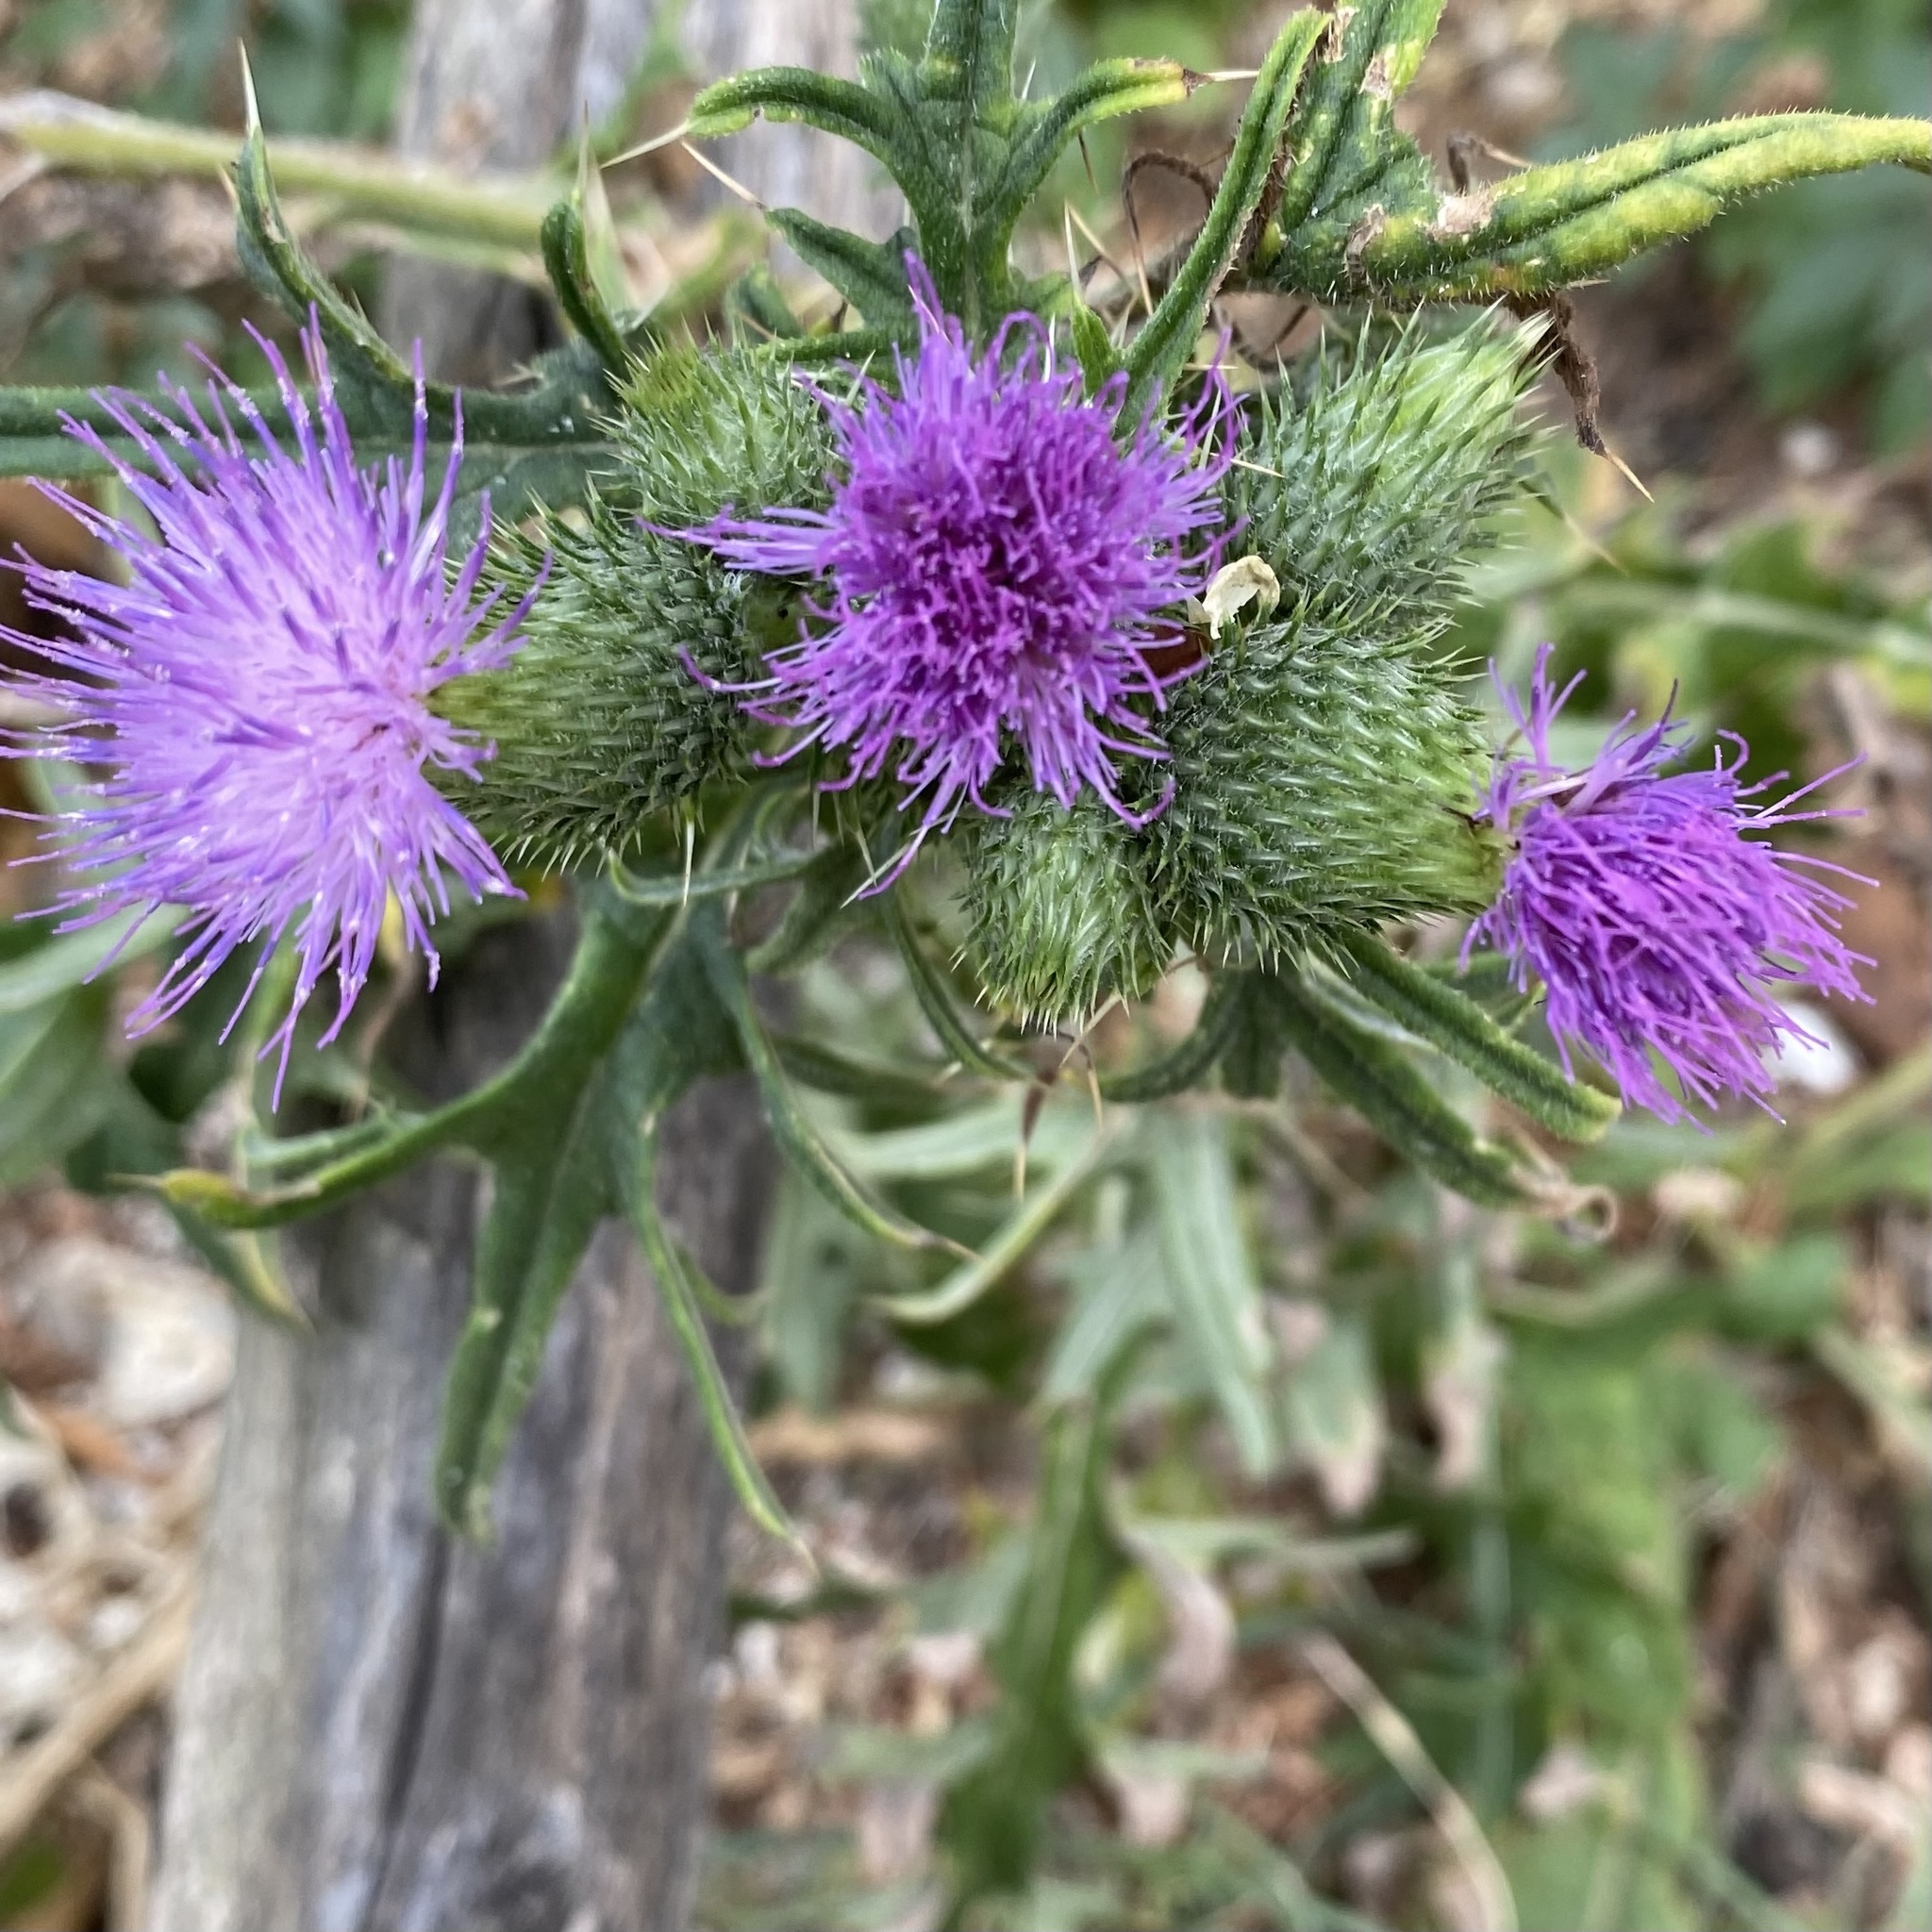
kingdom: Plantae
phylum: Tracheophyta
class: Magnoliopsida
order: Asterales
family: Asteraceae
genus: Cirsium
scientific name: Cirsium vulgare
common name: Bull thistle
